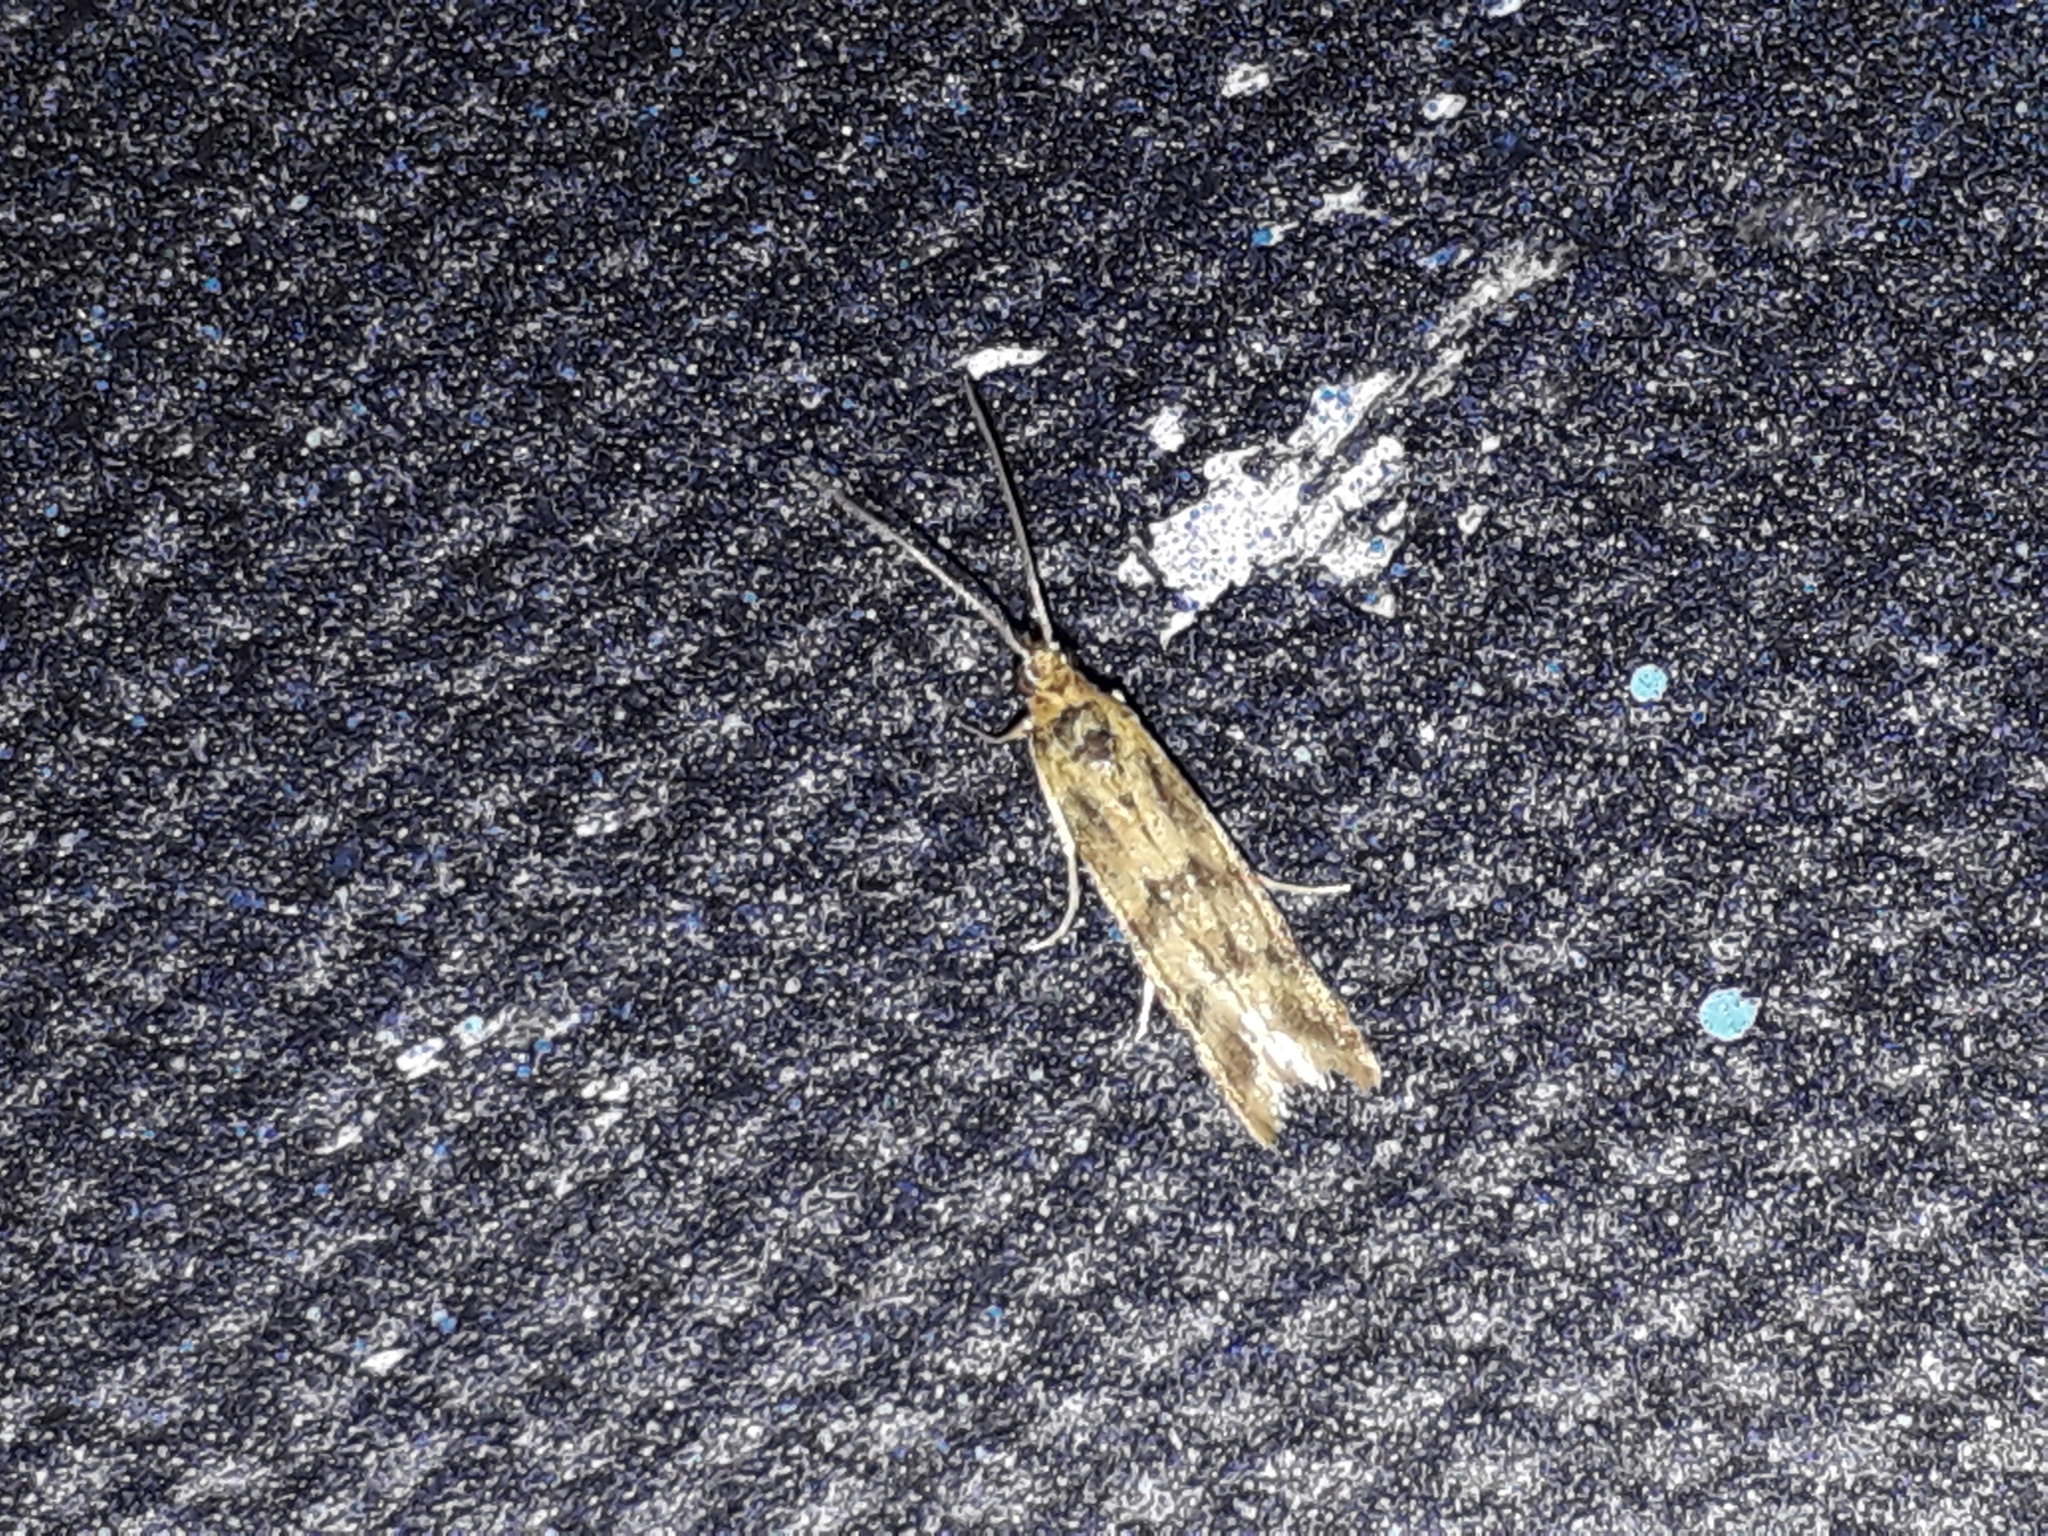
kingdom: Animalia
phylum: Arthropoda
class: Insecta
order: Lepidoptera
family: Pyralidae
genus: Homoeosoma
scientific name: Homoeosoma sinuella
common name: Twin-barred knot-horn
